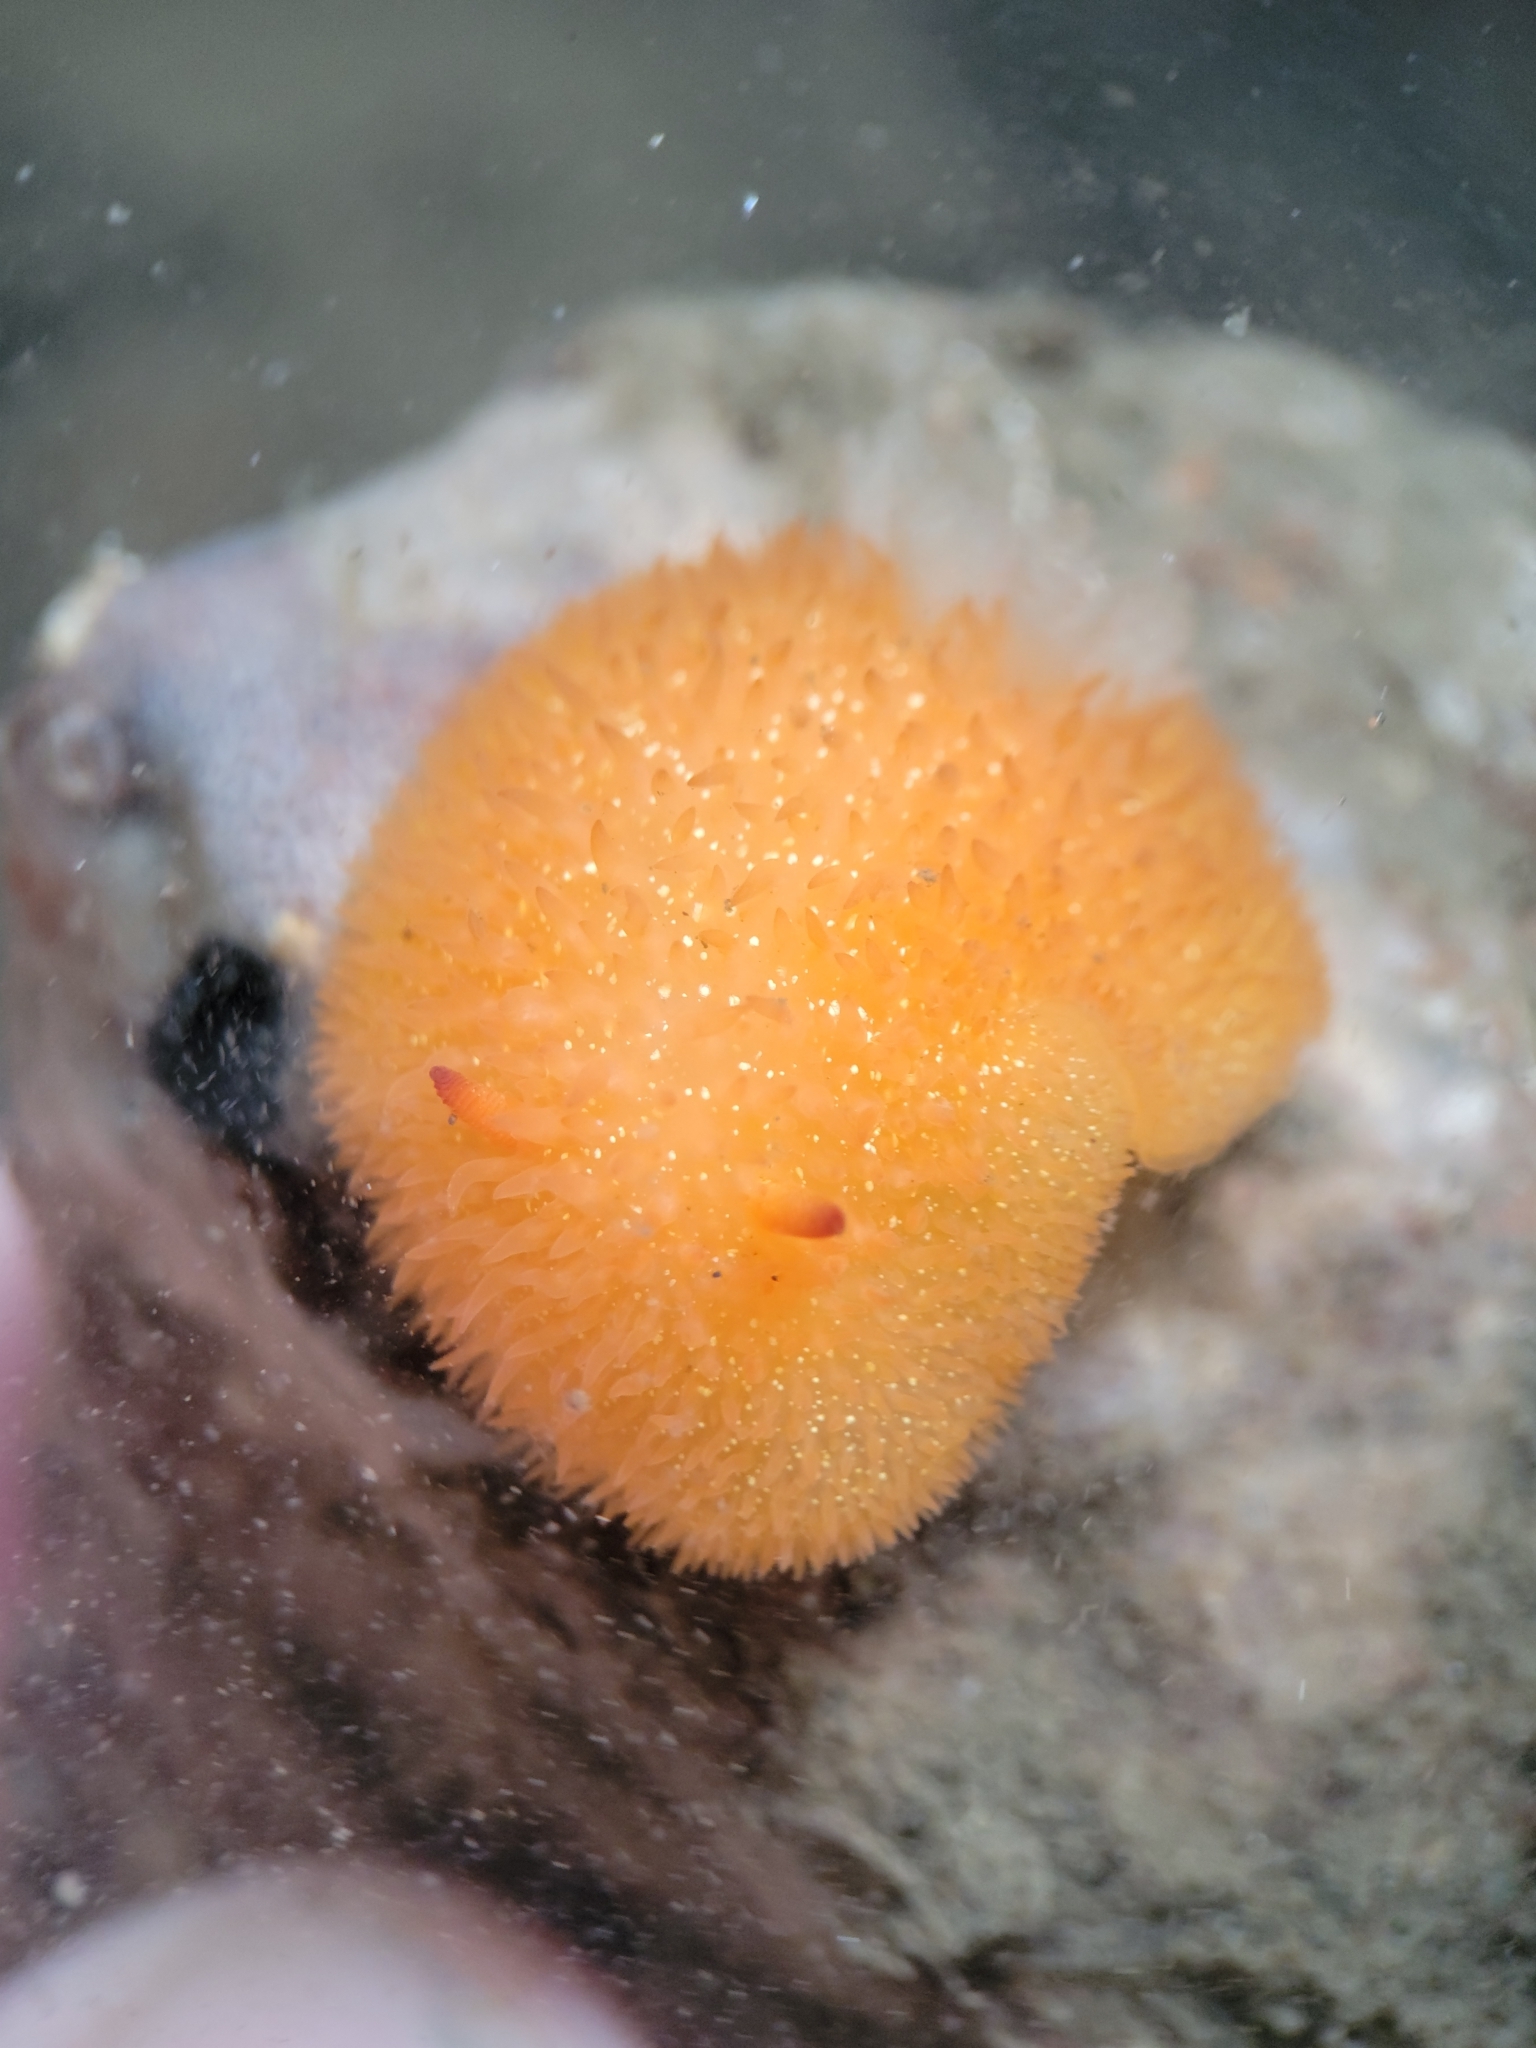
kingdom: Animalia
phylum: Mollusca
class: Gastropoda
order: Nudibranchia
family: Onchidorididae
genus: Acanthodoris
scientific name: Acanthodoris lutea
